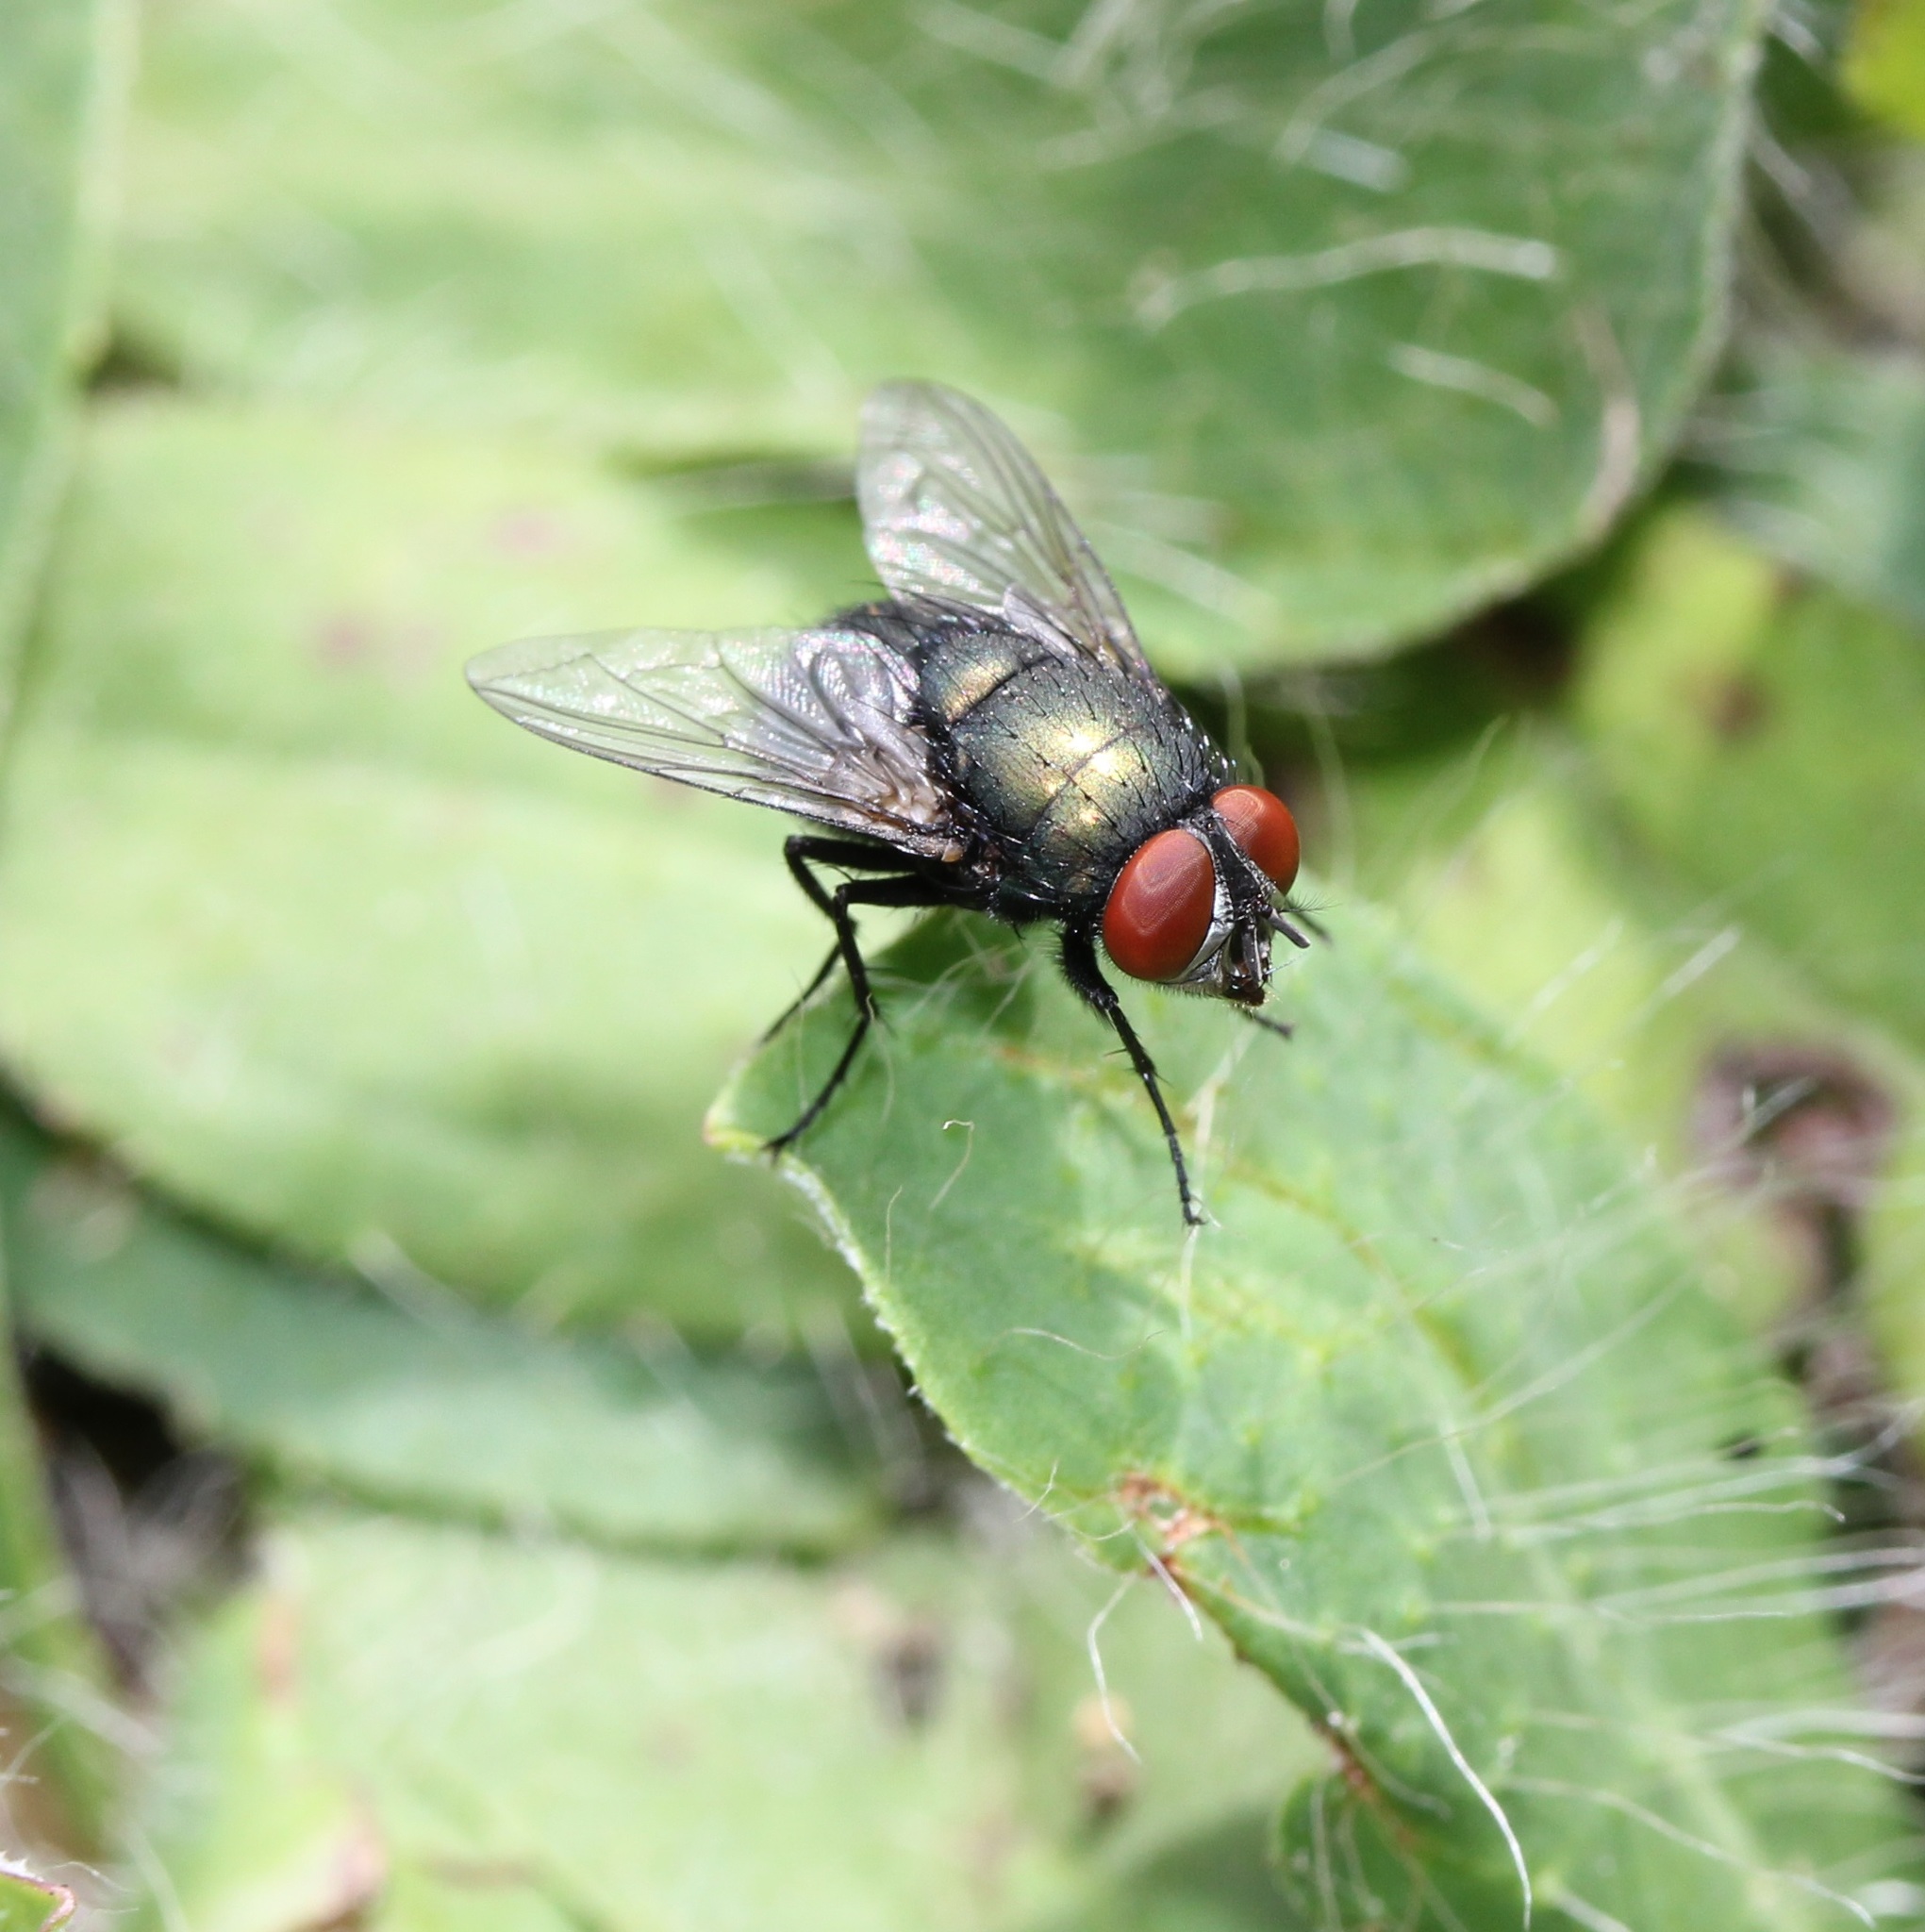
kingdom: Animalia
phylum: Arthropoda
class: Insecta
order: Diptera
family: Calliphoridae
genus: Lucilia
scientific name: Lucilia sericata
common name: Blow fly
